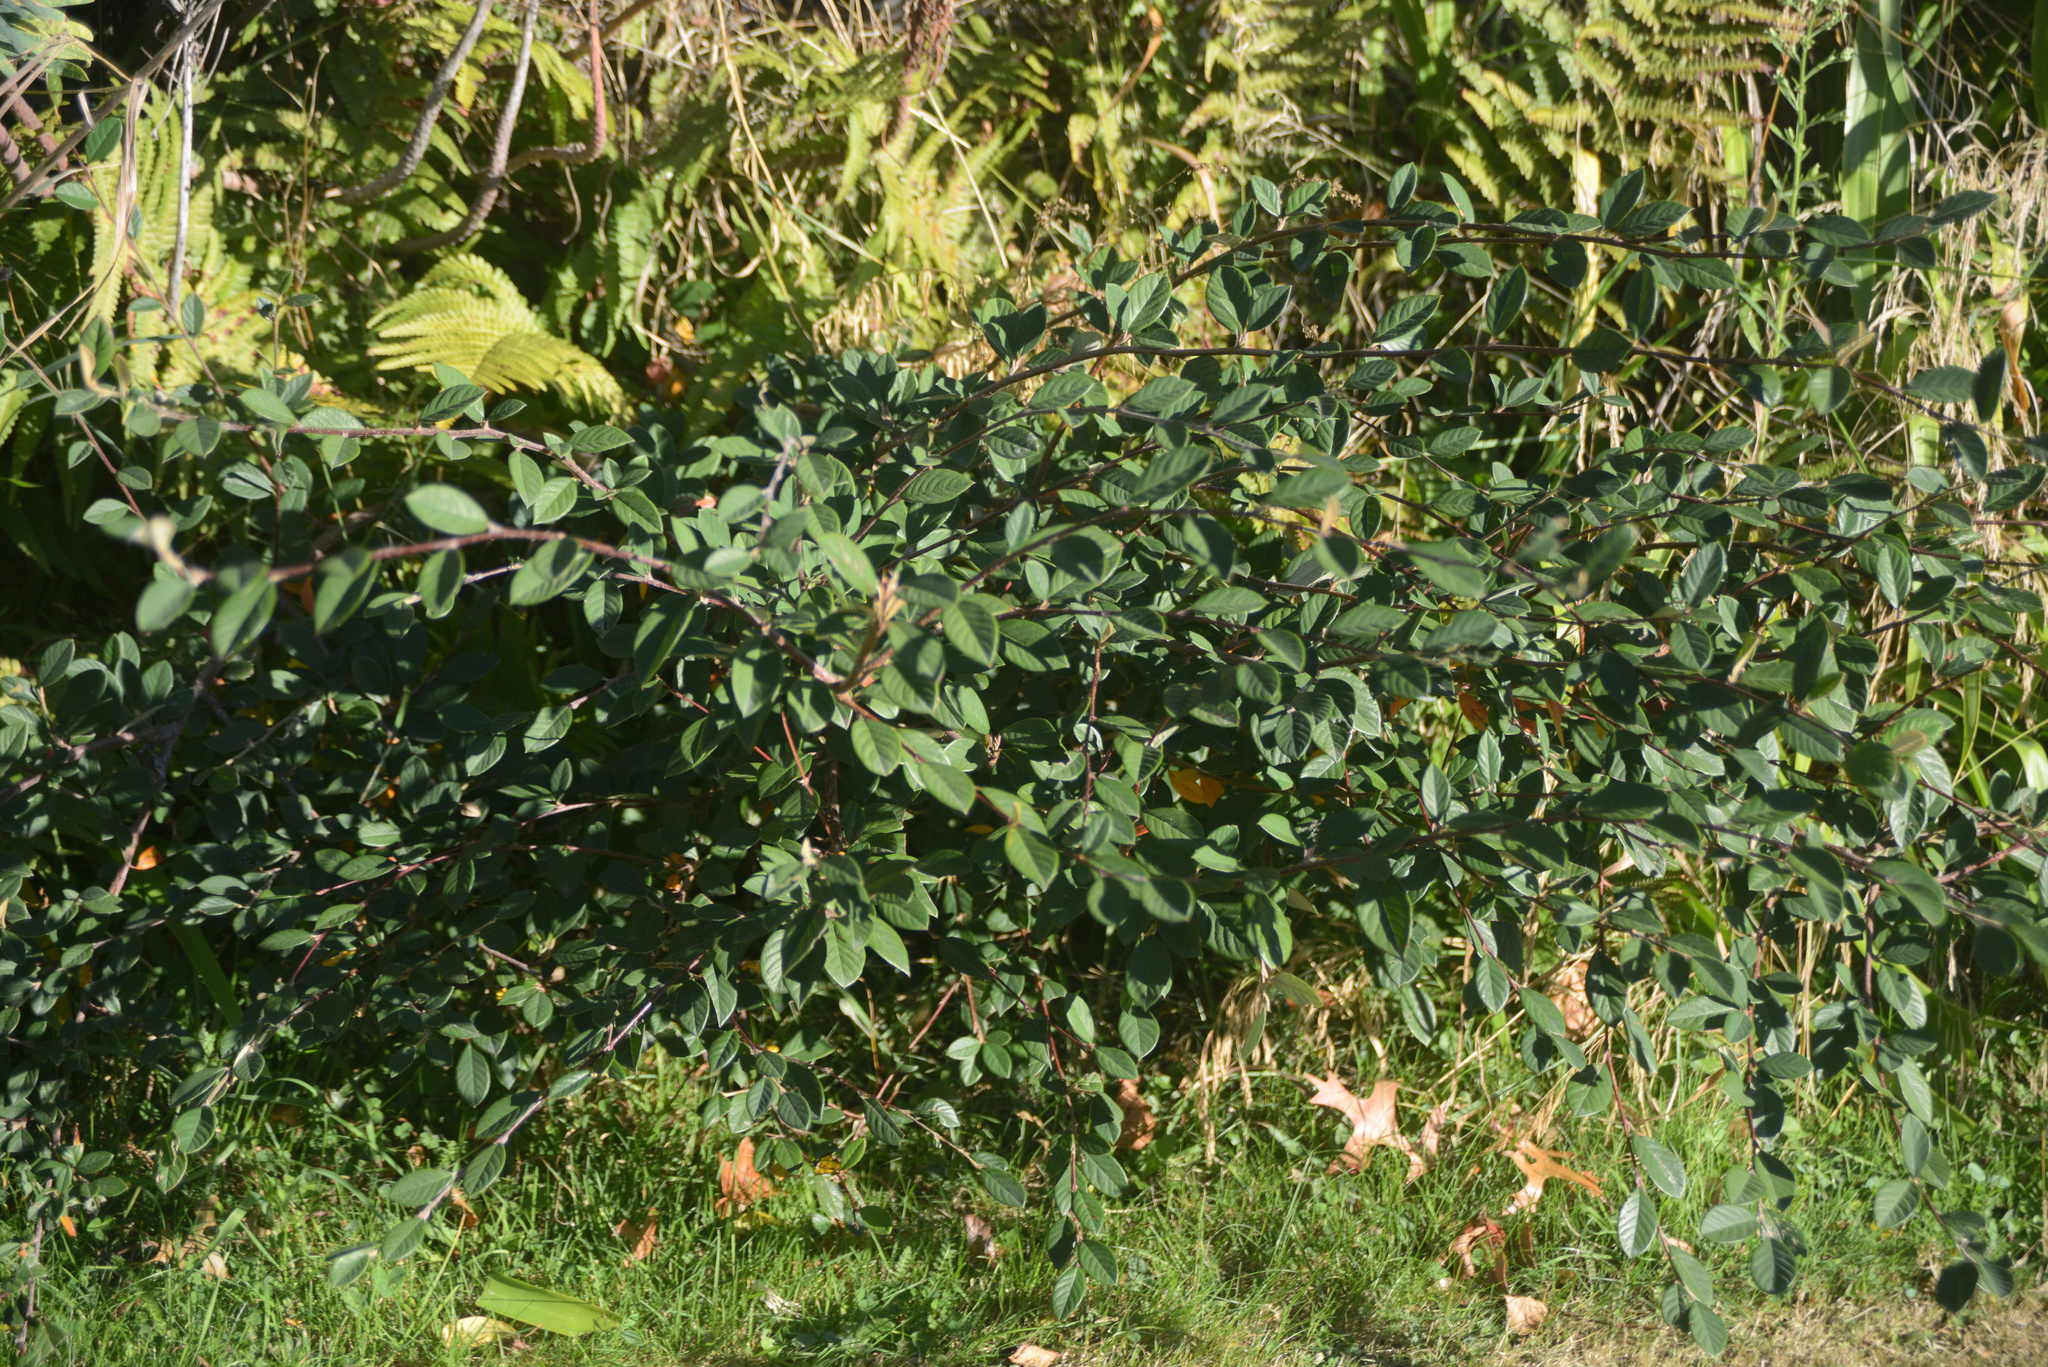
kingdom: Plantae
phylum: Tracheophyta
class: Magnoliopsida
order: Rosales
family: Rosaceae
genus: Cotoneaster
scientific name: Cotoneaster coriaceus
